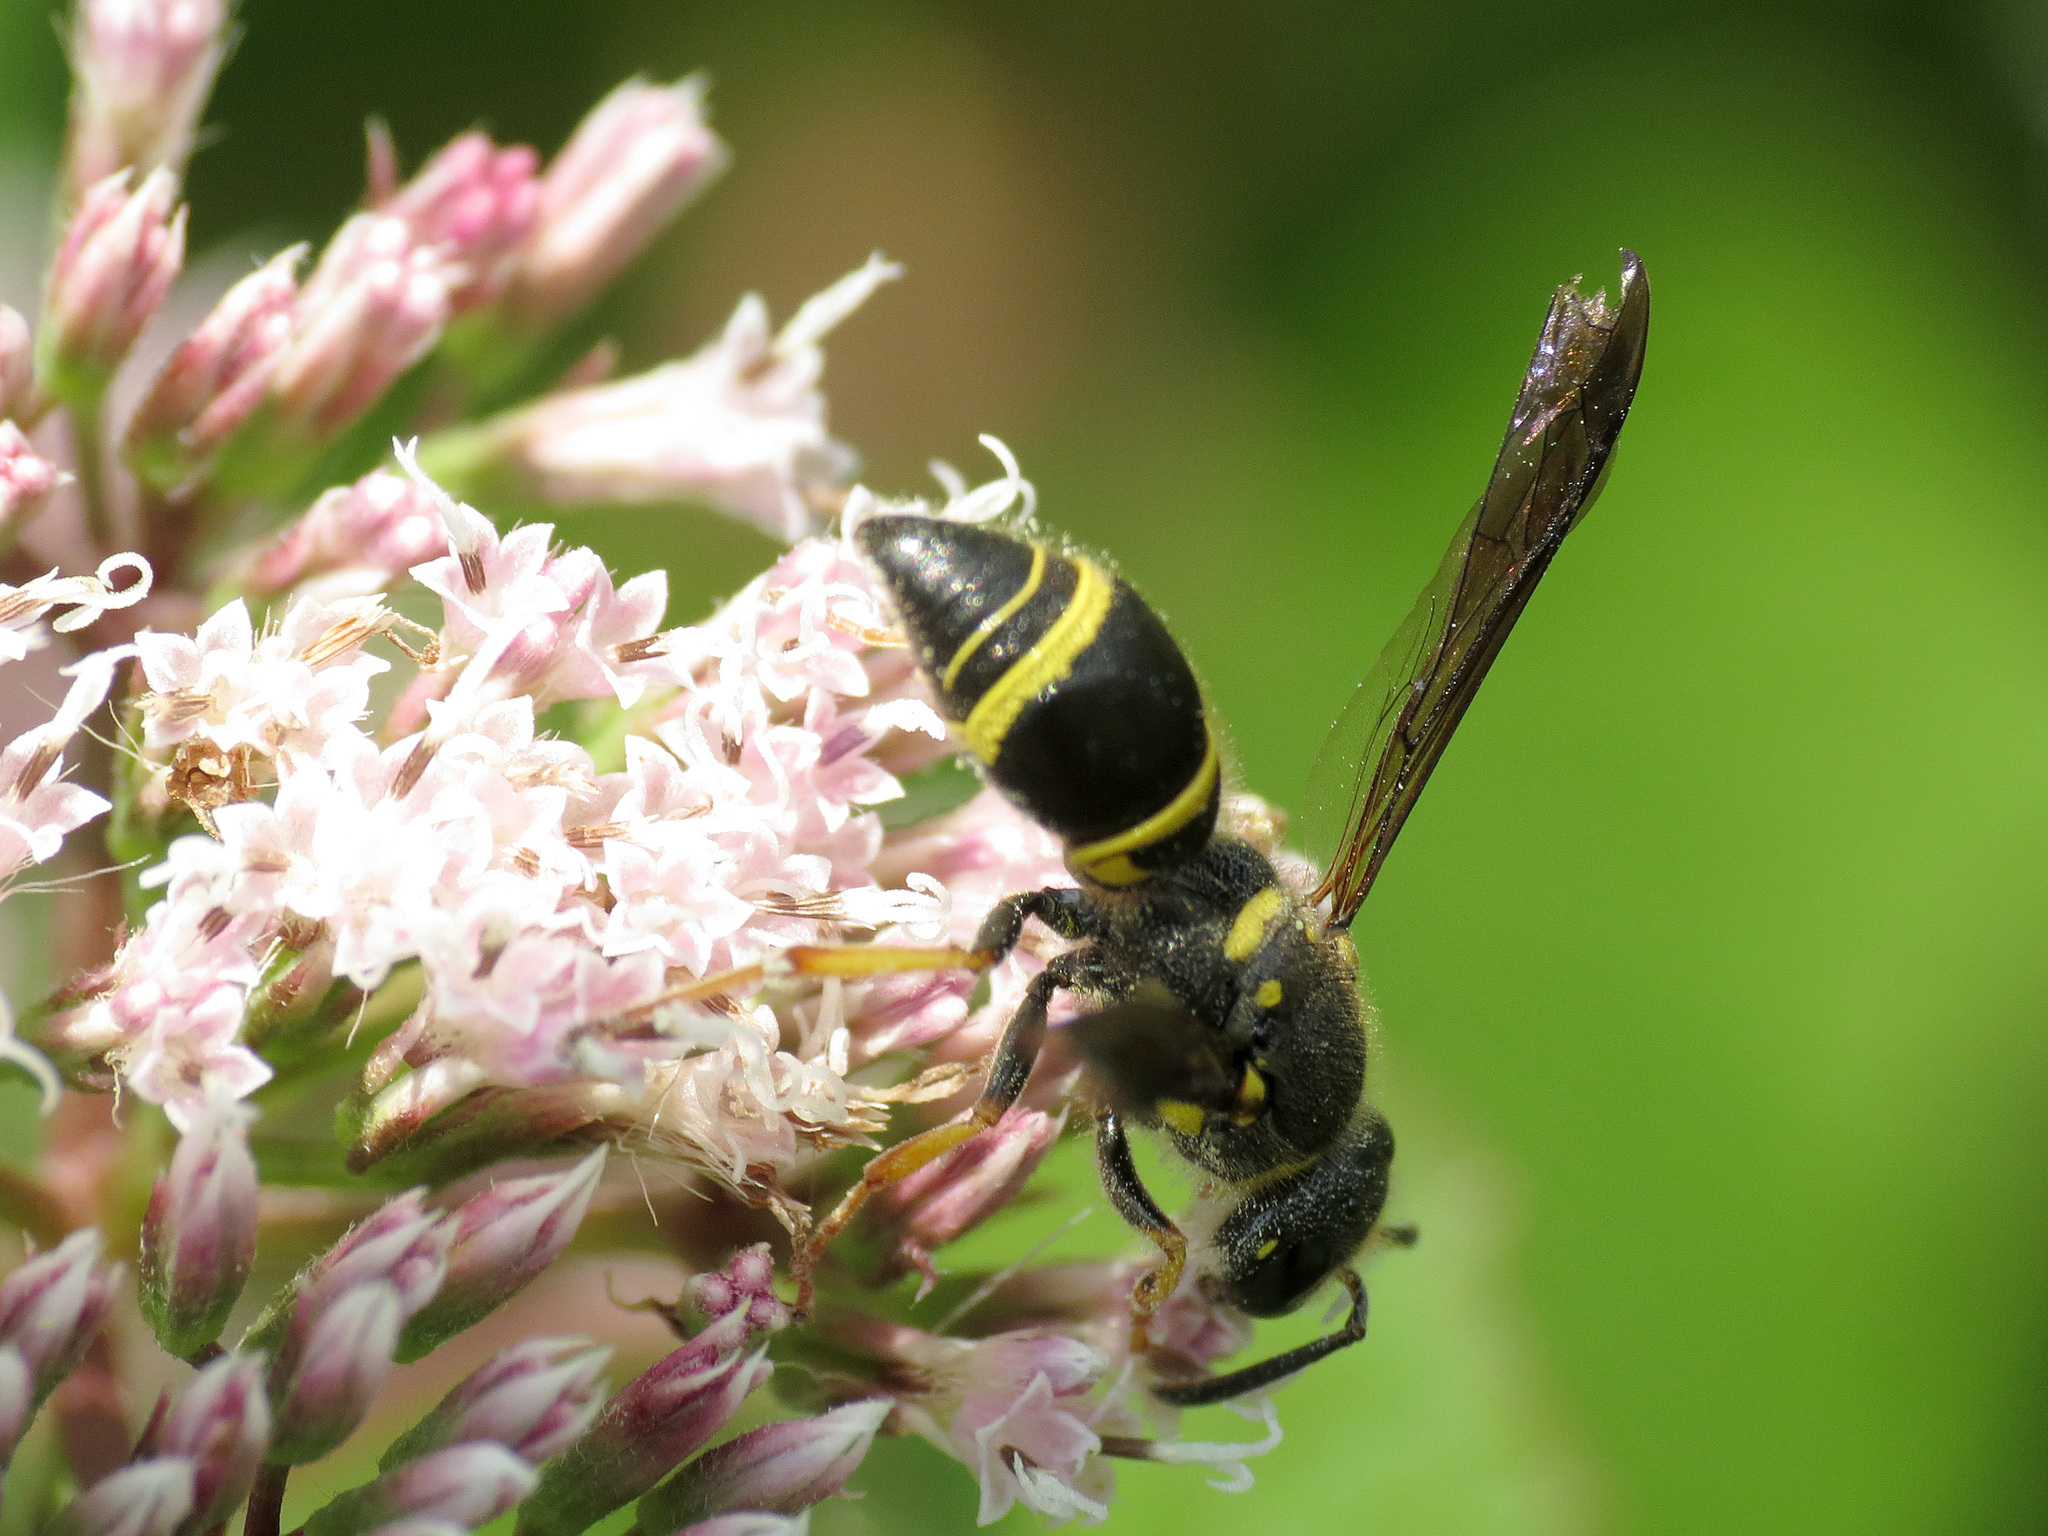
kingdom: Animalia
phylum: Arthropoda
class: Insecta
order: Hymenoptera
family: Vespidae
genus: Ancistrocerus
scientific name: Ancistrocerus campestris
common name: Smiling mason wasp
